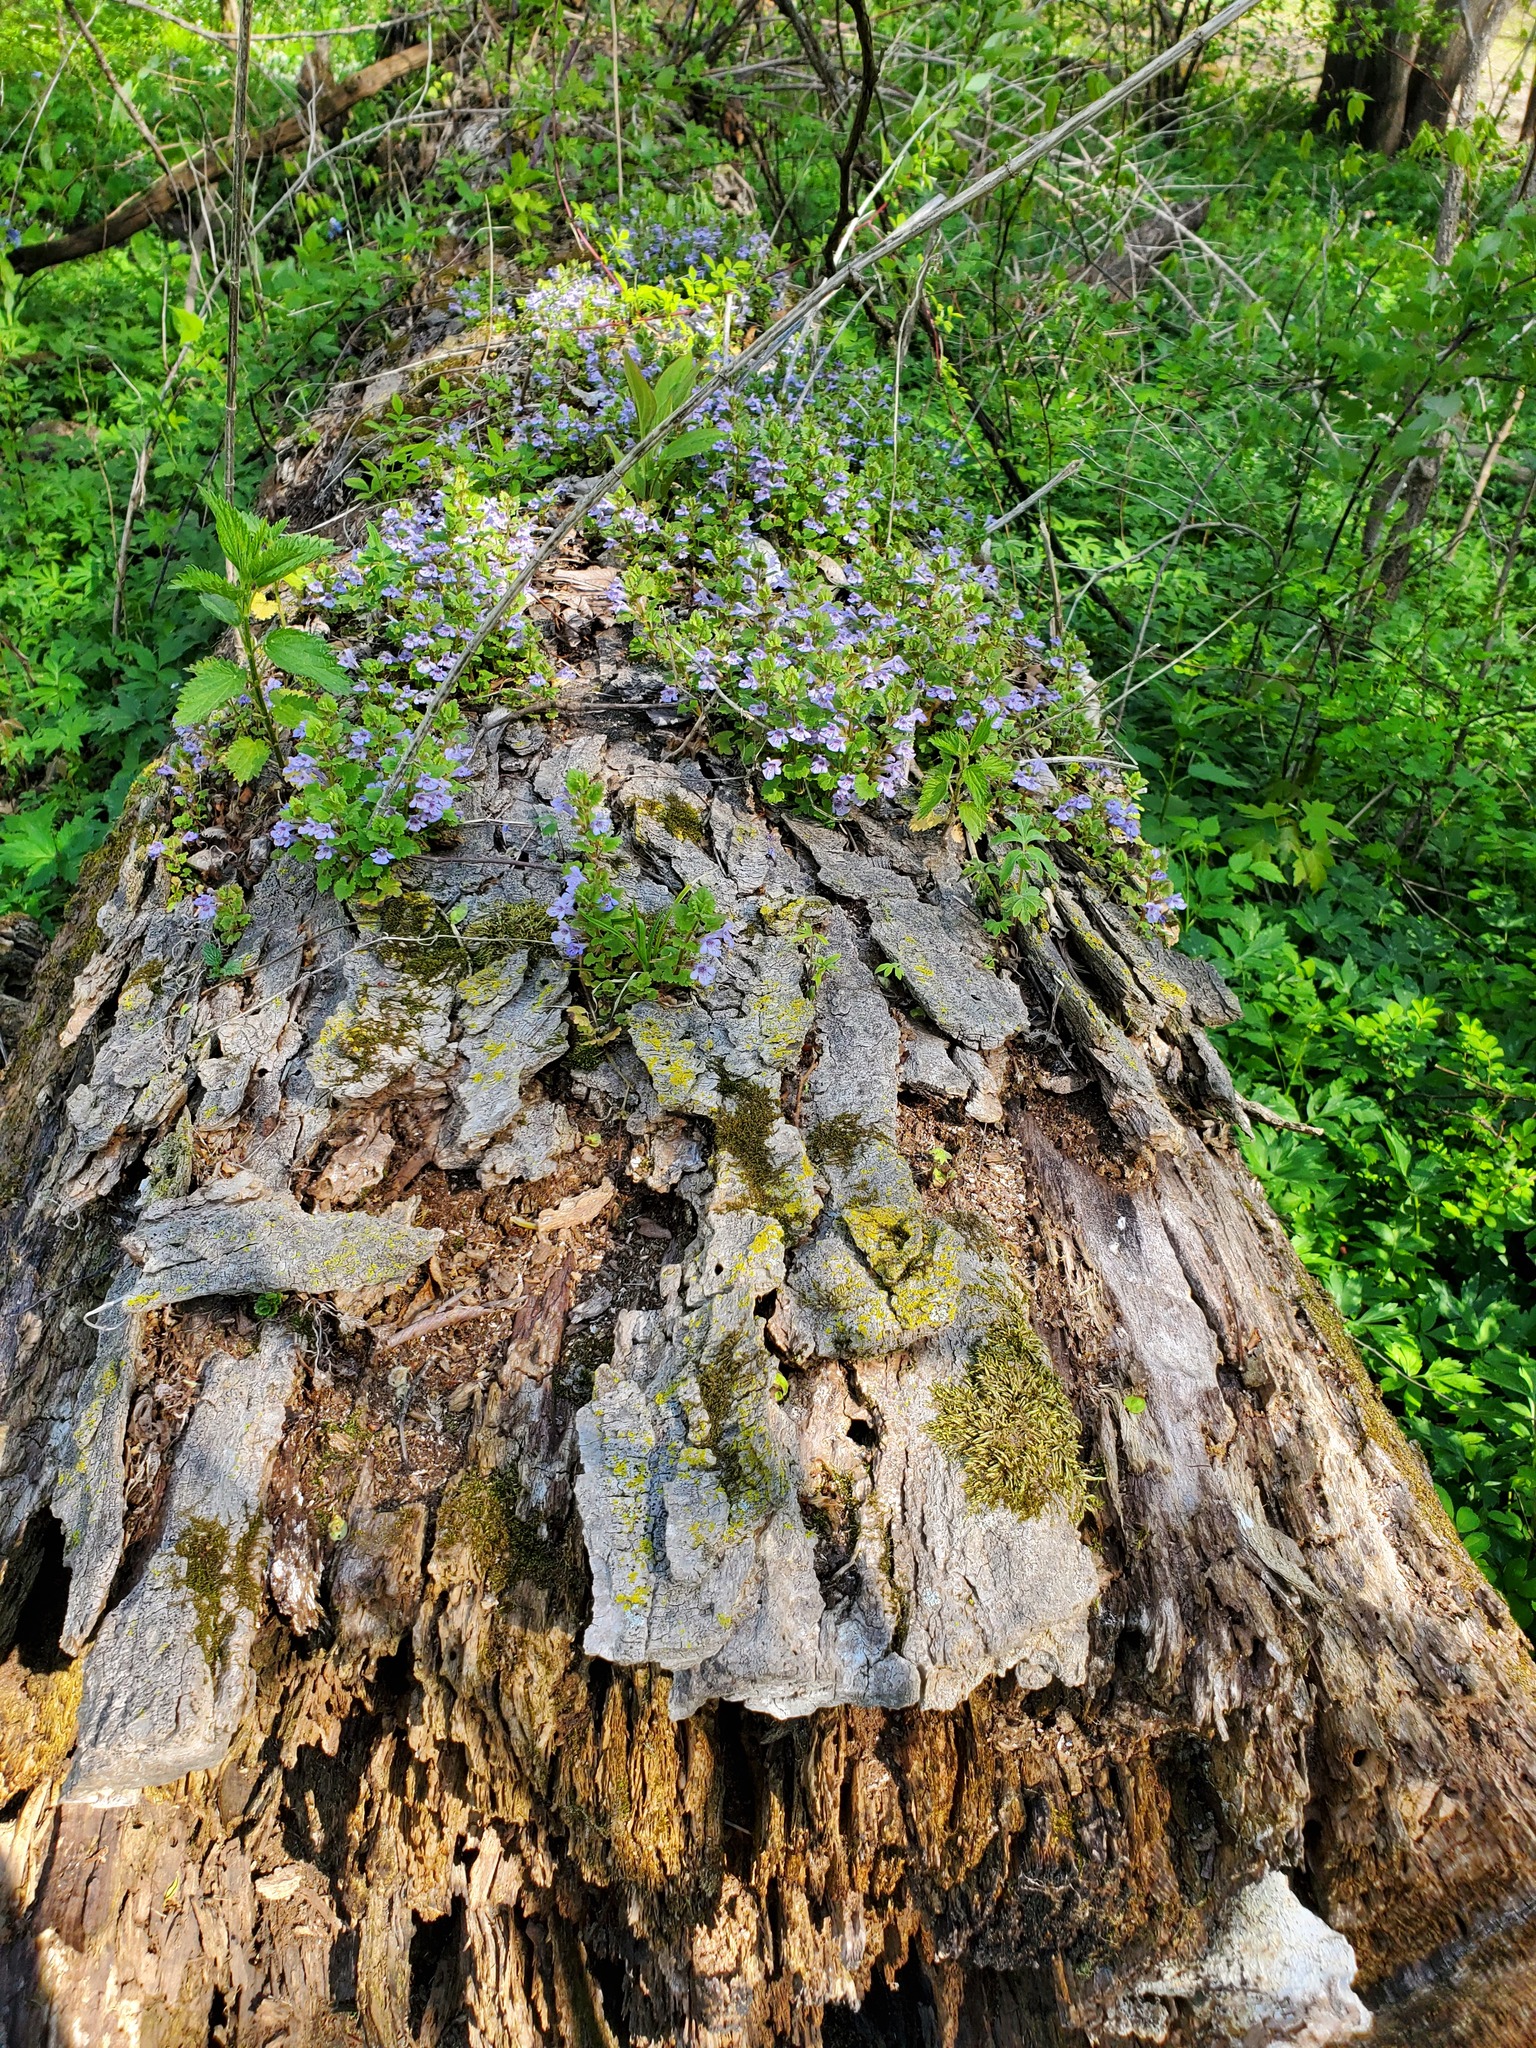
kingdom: Plantae
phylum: Tracheophyta
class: Magnoliopsida
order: Lamiales
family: Lamiaceae
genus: Glechoma
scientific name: Glechoma hederacea
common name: Ground ivy
